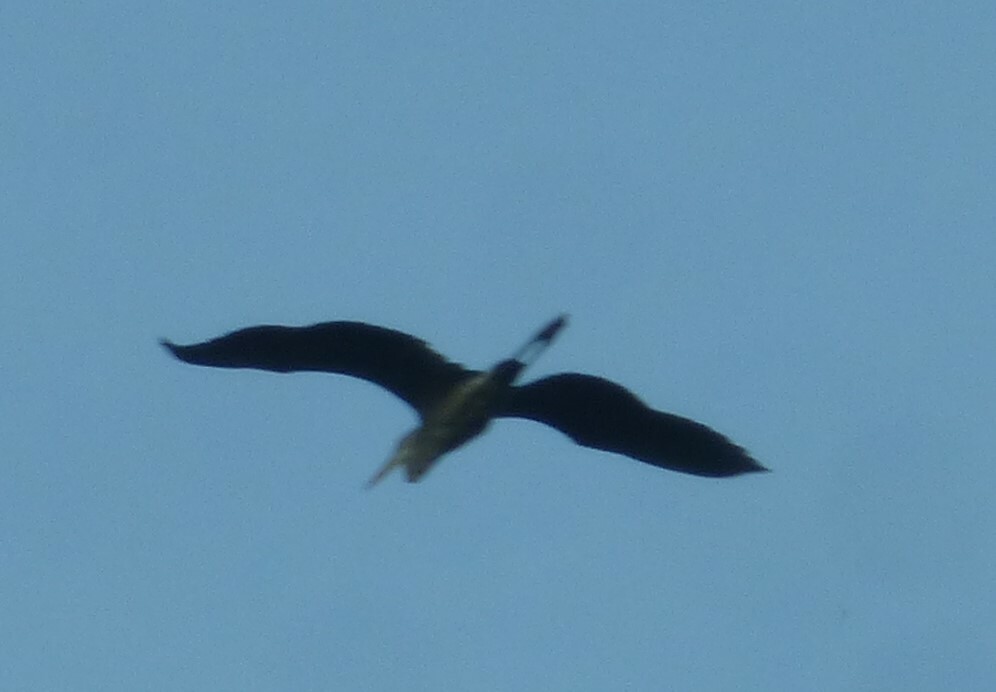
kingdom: Animalia
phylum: Chordata
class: Aves
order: Pelecaniformes
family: Ardeidae
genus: Ardea
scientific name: Ardea herodias
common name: Great blue heron
